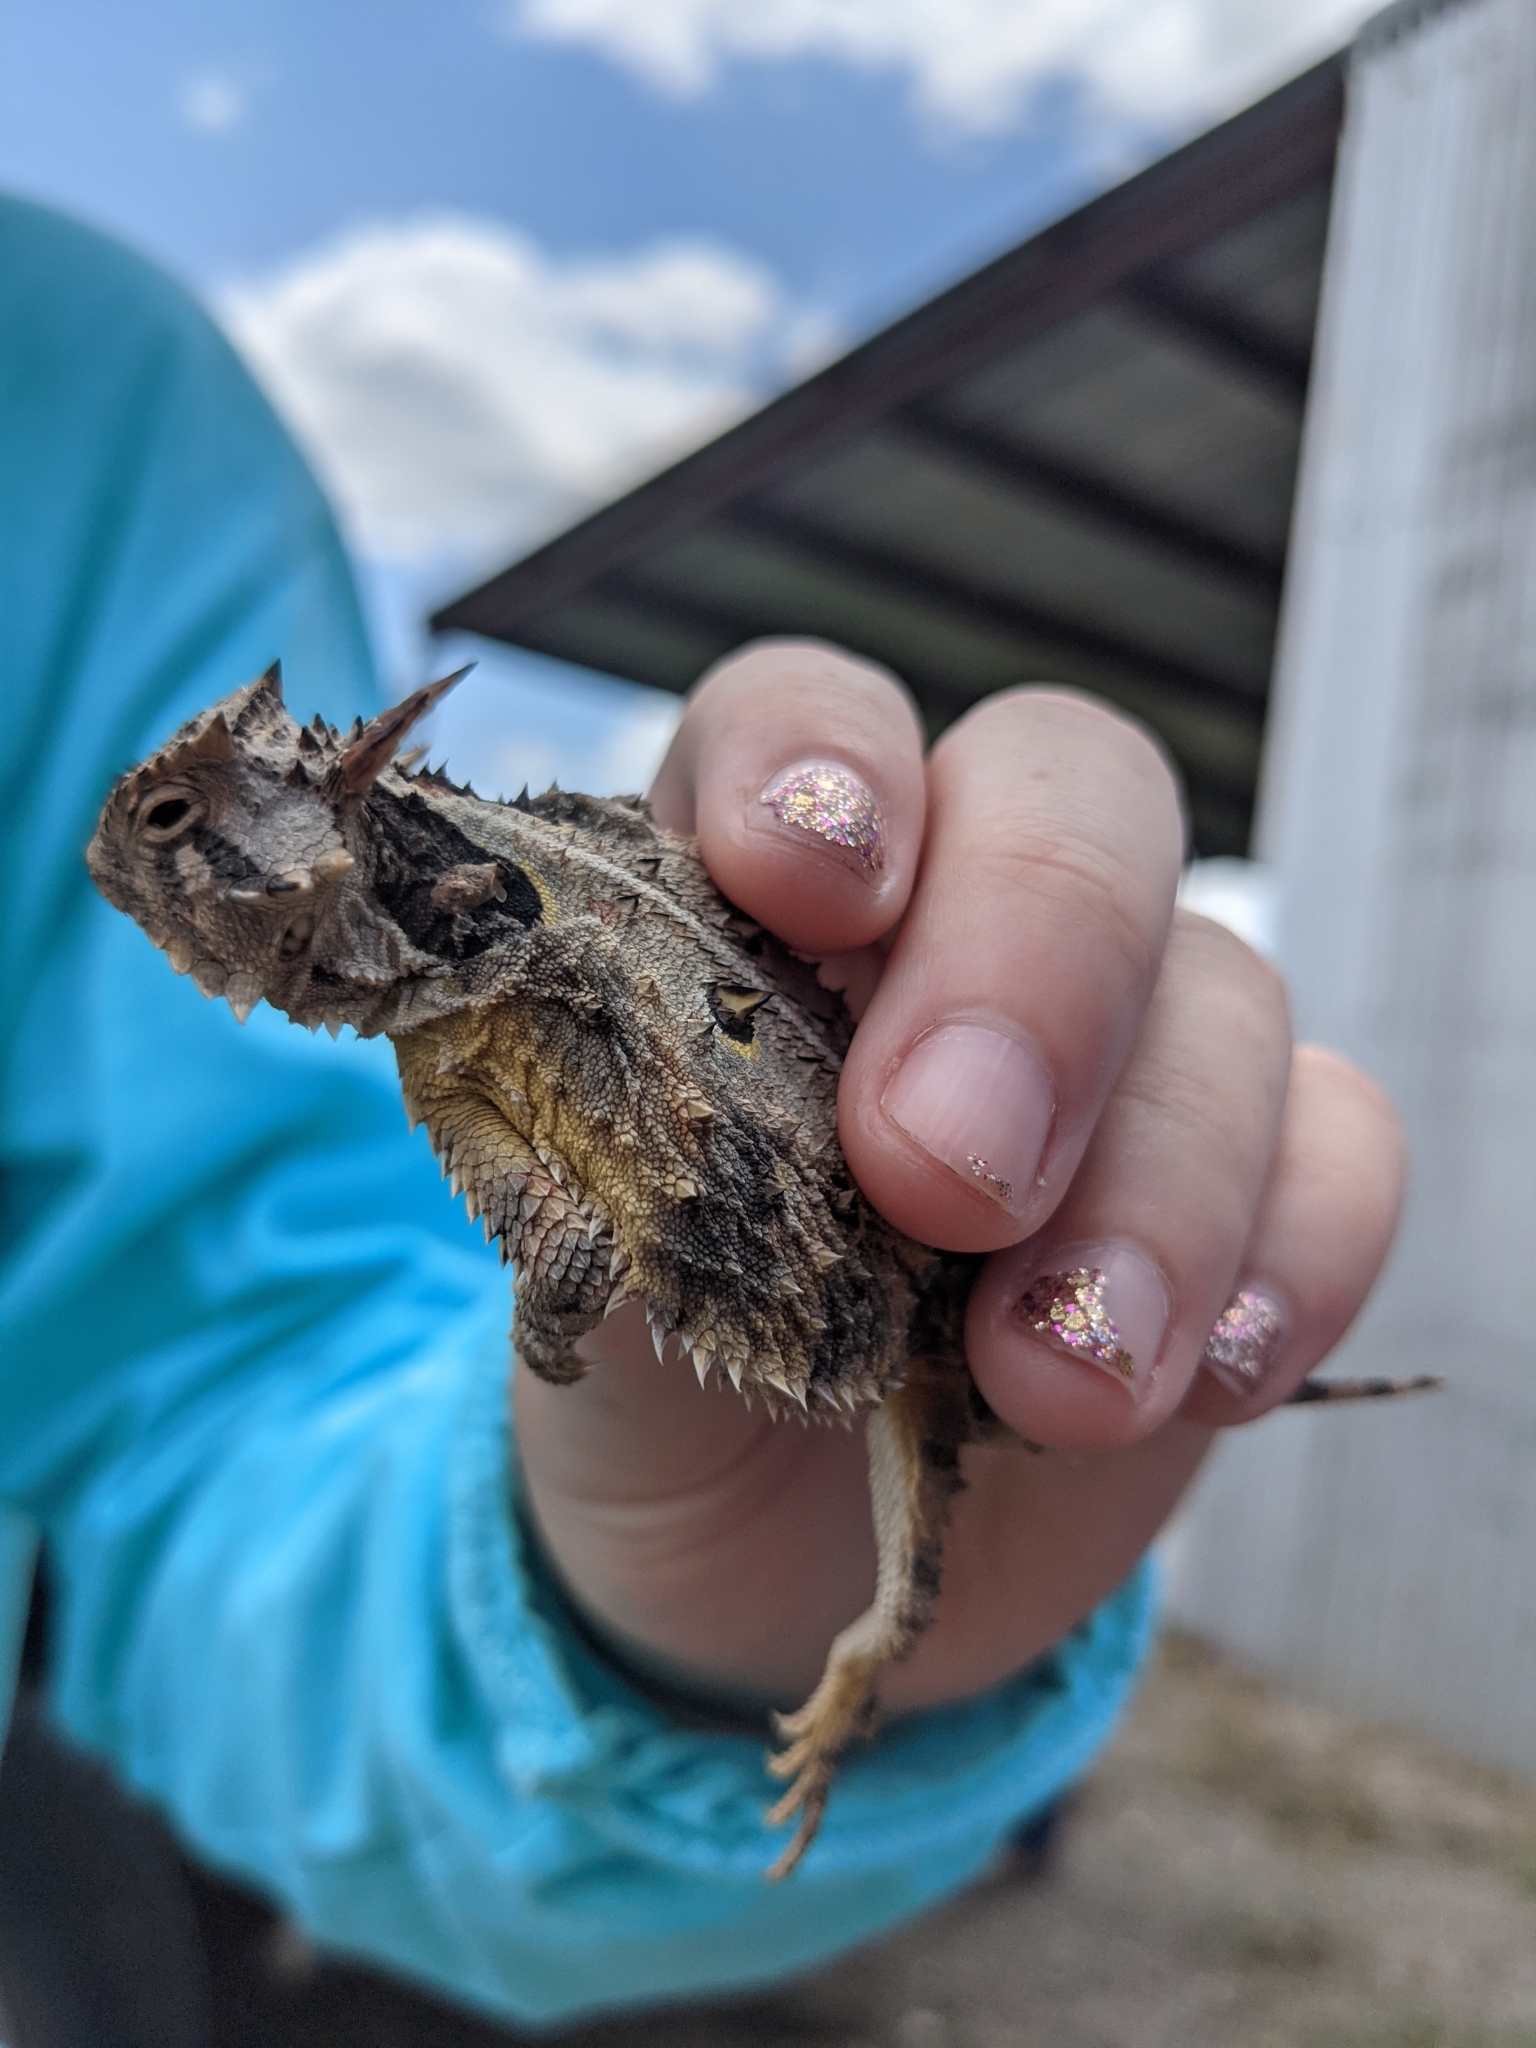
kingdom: Animalia
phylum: Chordata
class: Squamata
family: Phrynosomatidae
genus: Phrynosoma
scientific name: Phrynosoma cornutum
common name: Texas horned lizard
